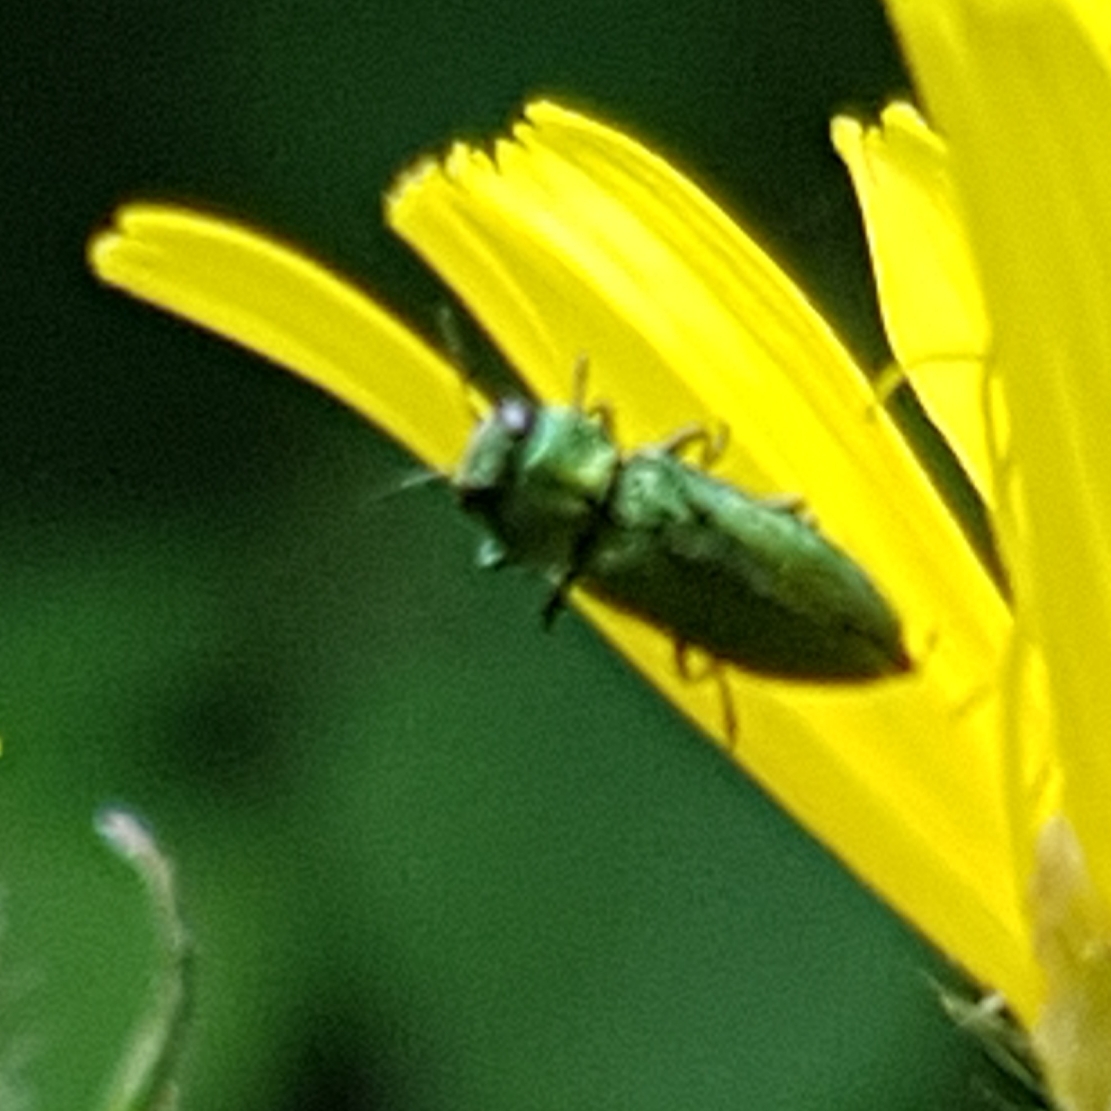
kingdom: Animalia
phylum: Arthropoda
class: Insecta
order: Coleoptera
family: Buprestidae
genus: Anthaxia
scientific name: Anthaxia nitidula
